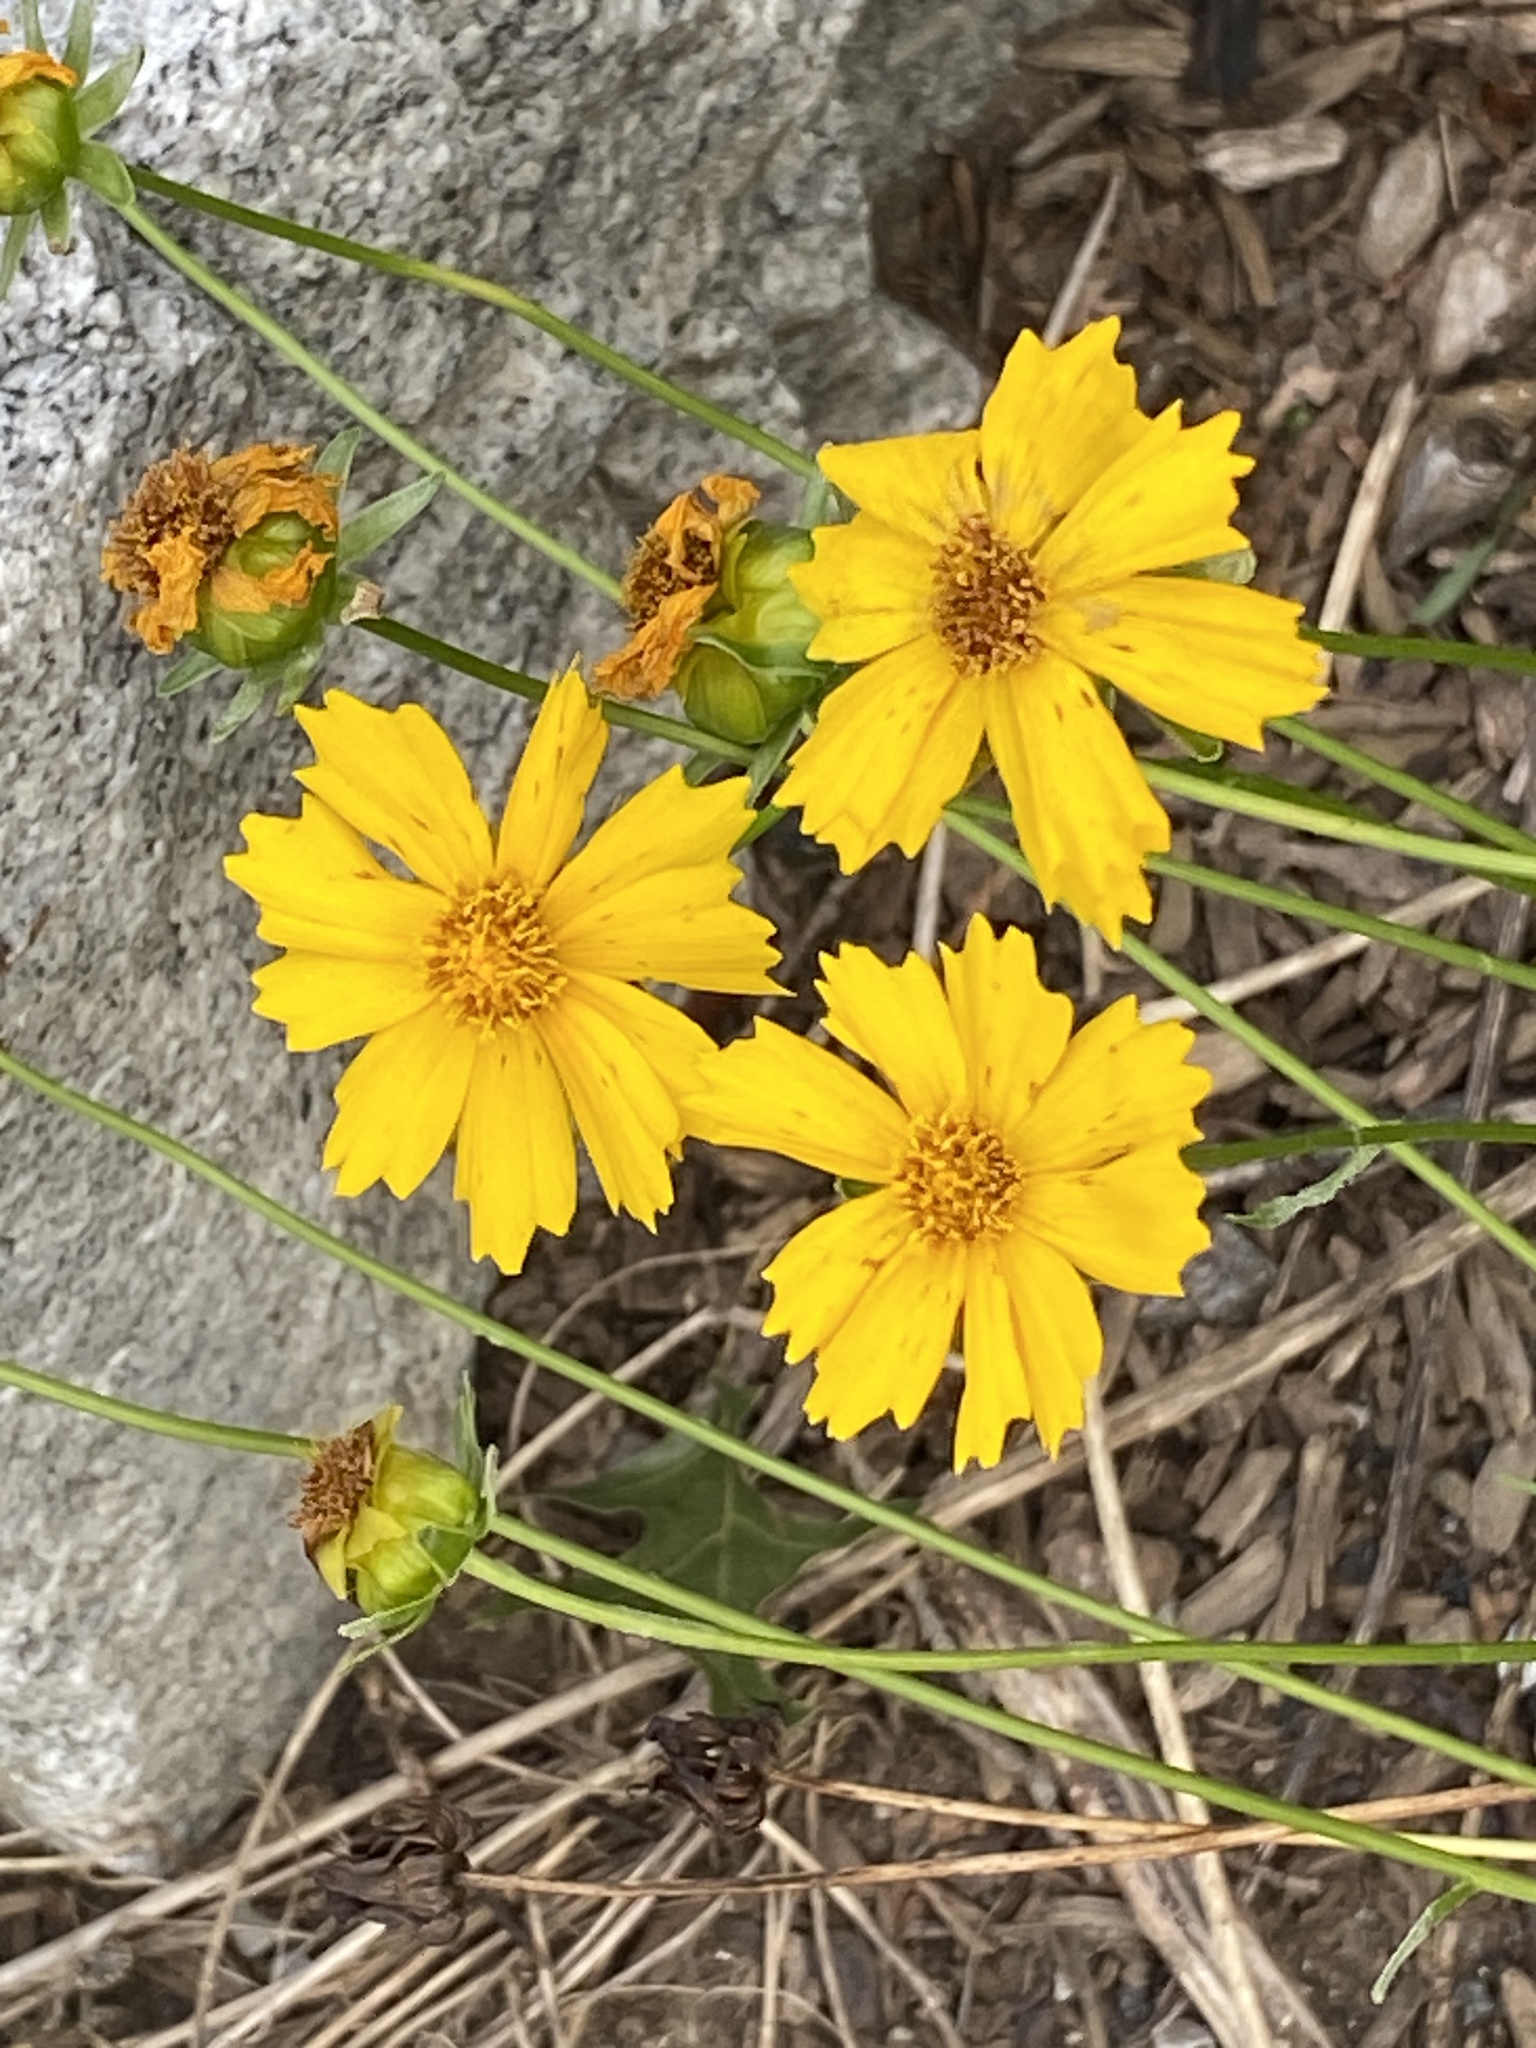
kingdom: Plantae
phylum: Tracheophyta
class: Magnoliopsida
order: Asterales
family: Asteraceae
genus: Coreopsis
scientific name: Coreopsis lanceolata
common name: Garden coreopsis
